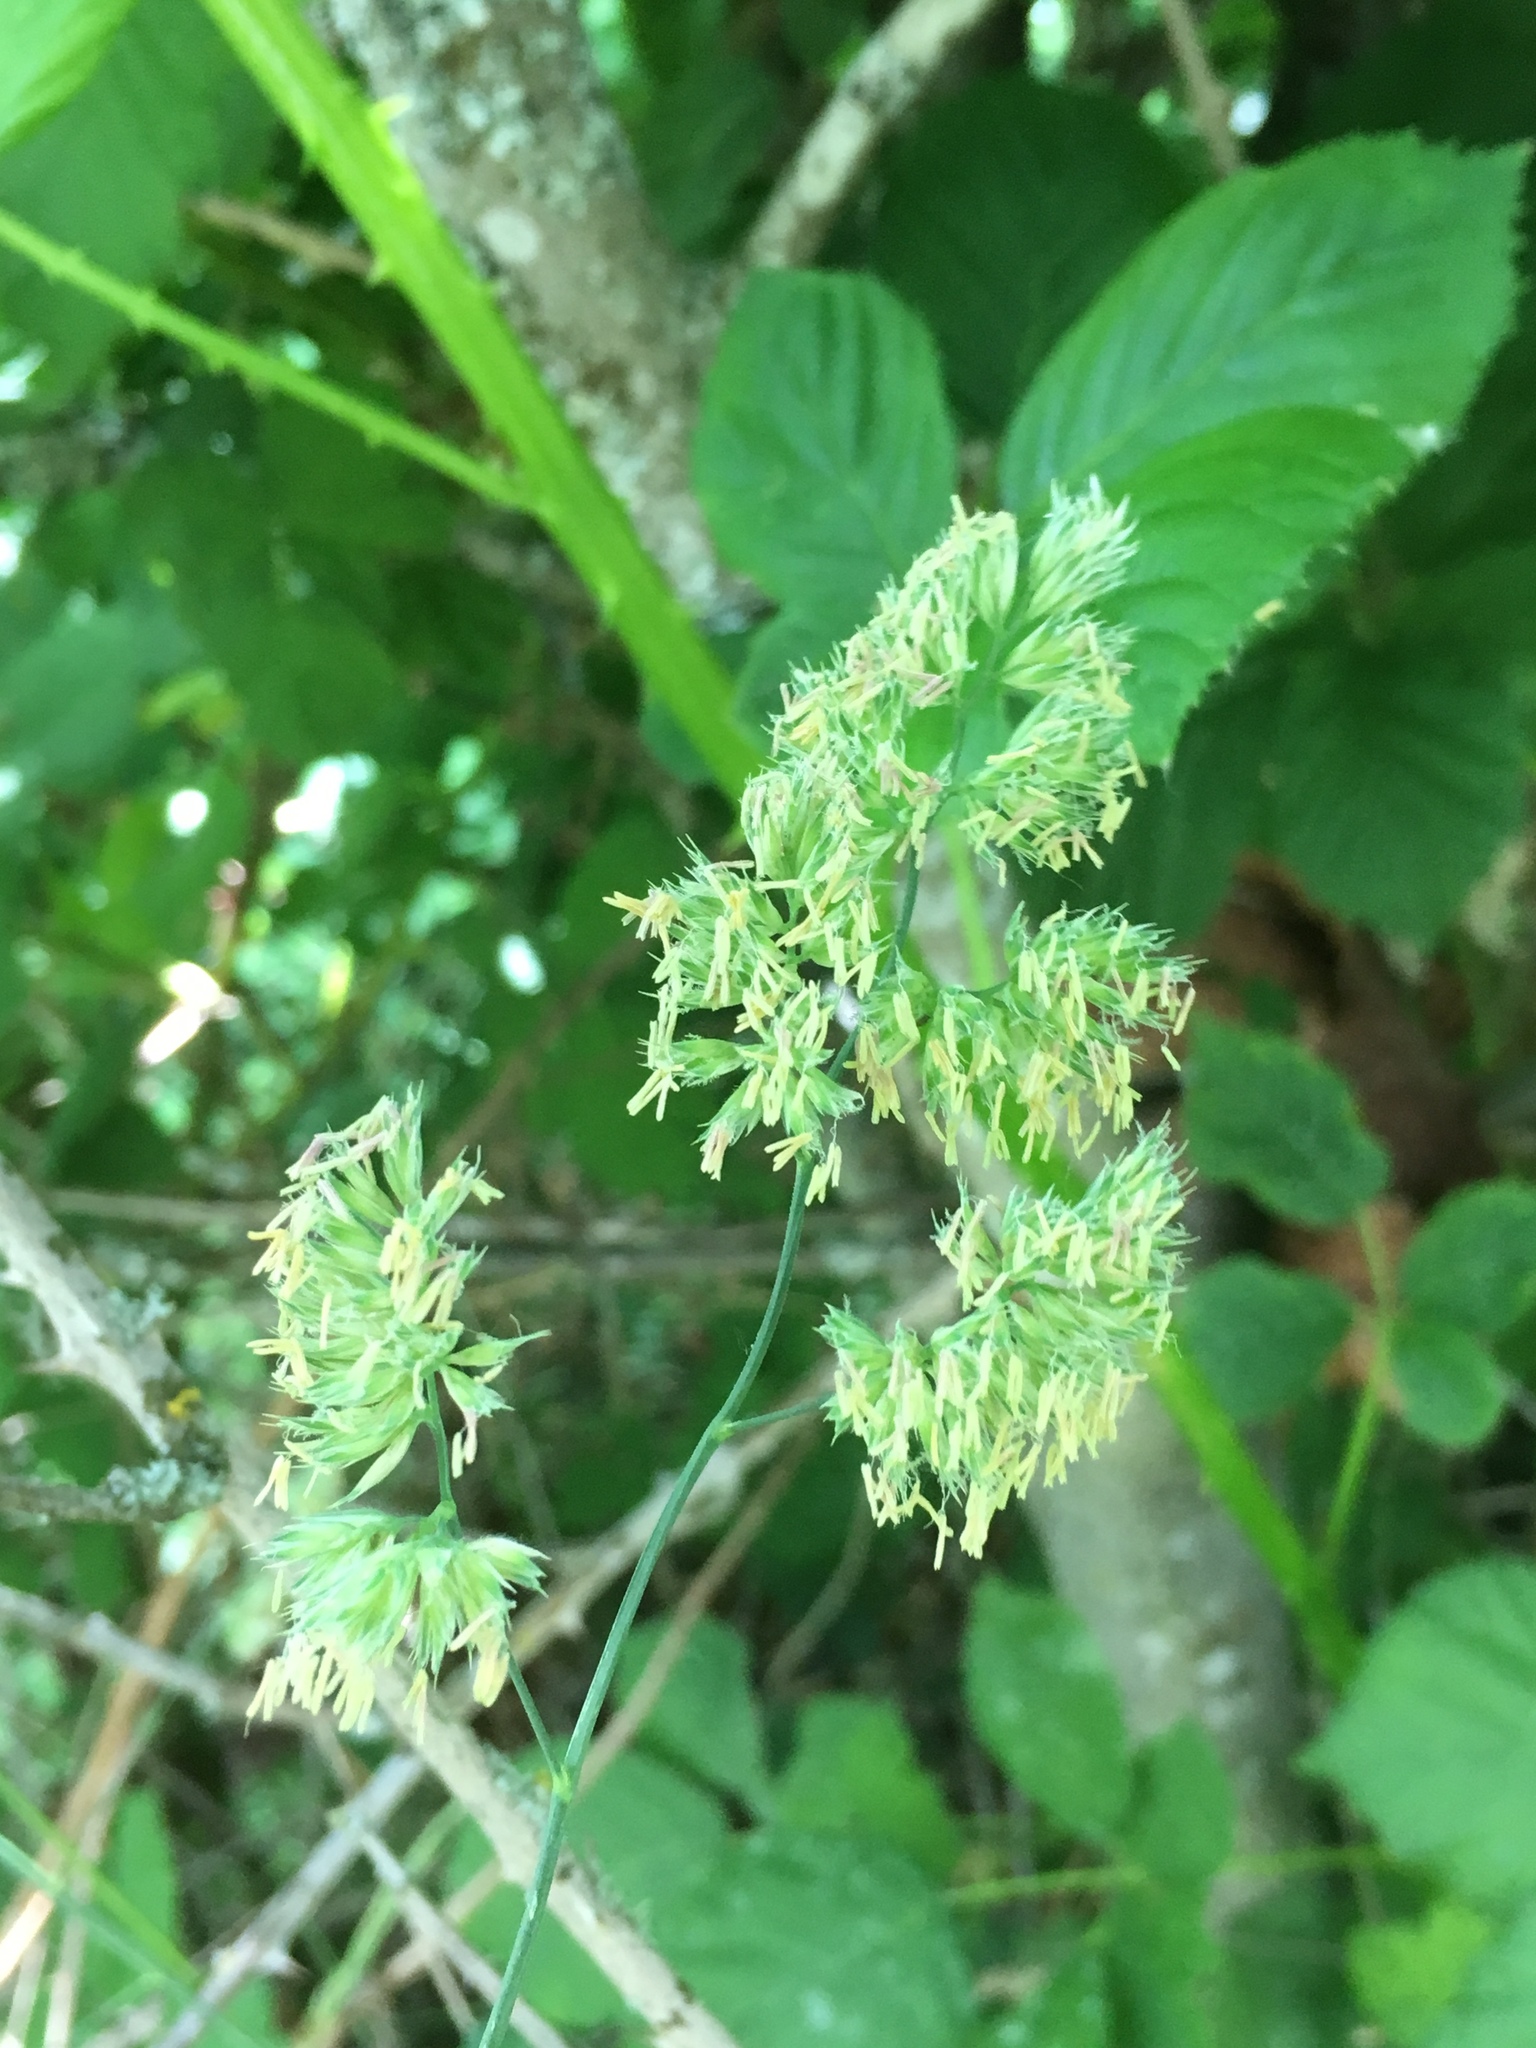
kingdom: Plantae
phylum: Tracheophyta
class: Liliopsida
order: Poales
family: Poaceae
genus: Dactylis
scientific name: Dactylis glomerata
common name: Orchardgrass
